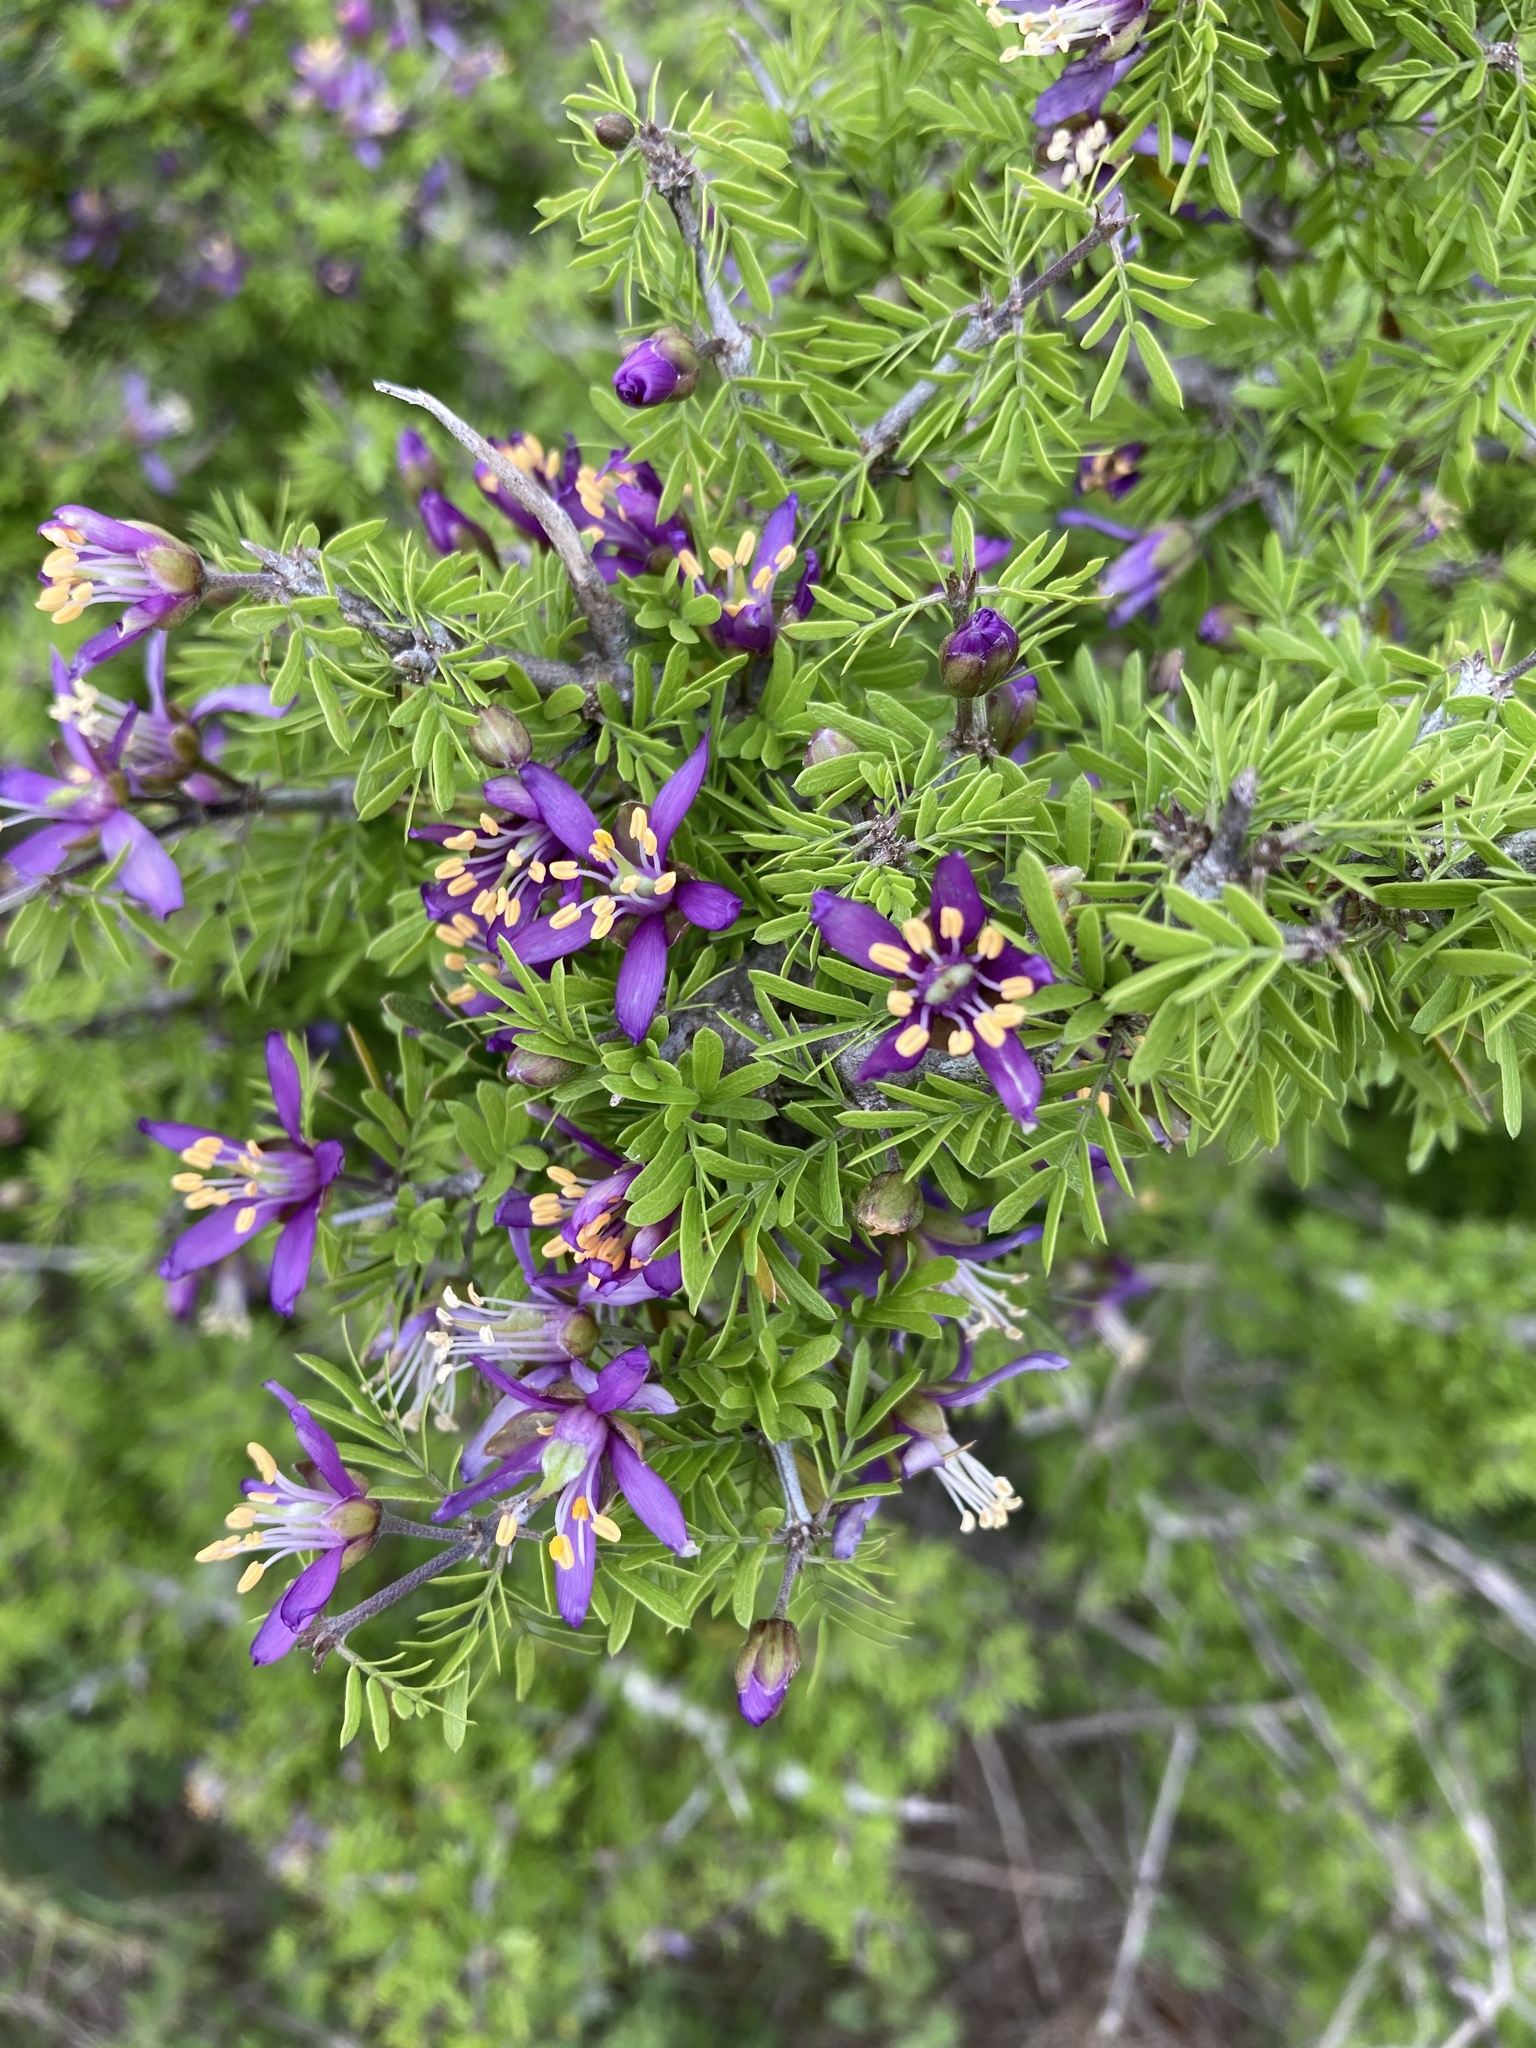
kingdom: Plantae
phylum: Tracheophyta
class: Magnoliopsida
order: Zygophyllales
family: Zygophyllaceae
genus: Porlieria
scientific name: Porlieria angustifolia
